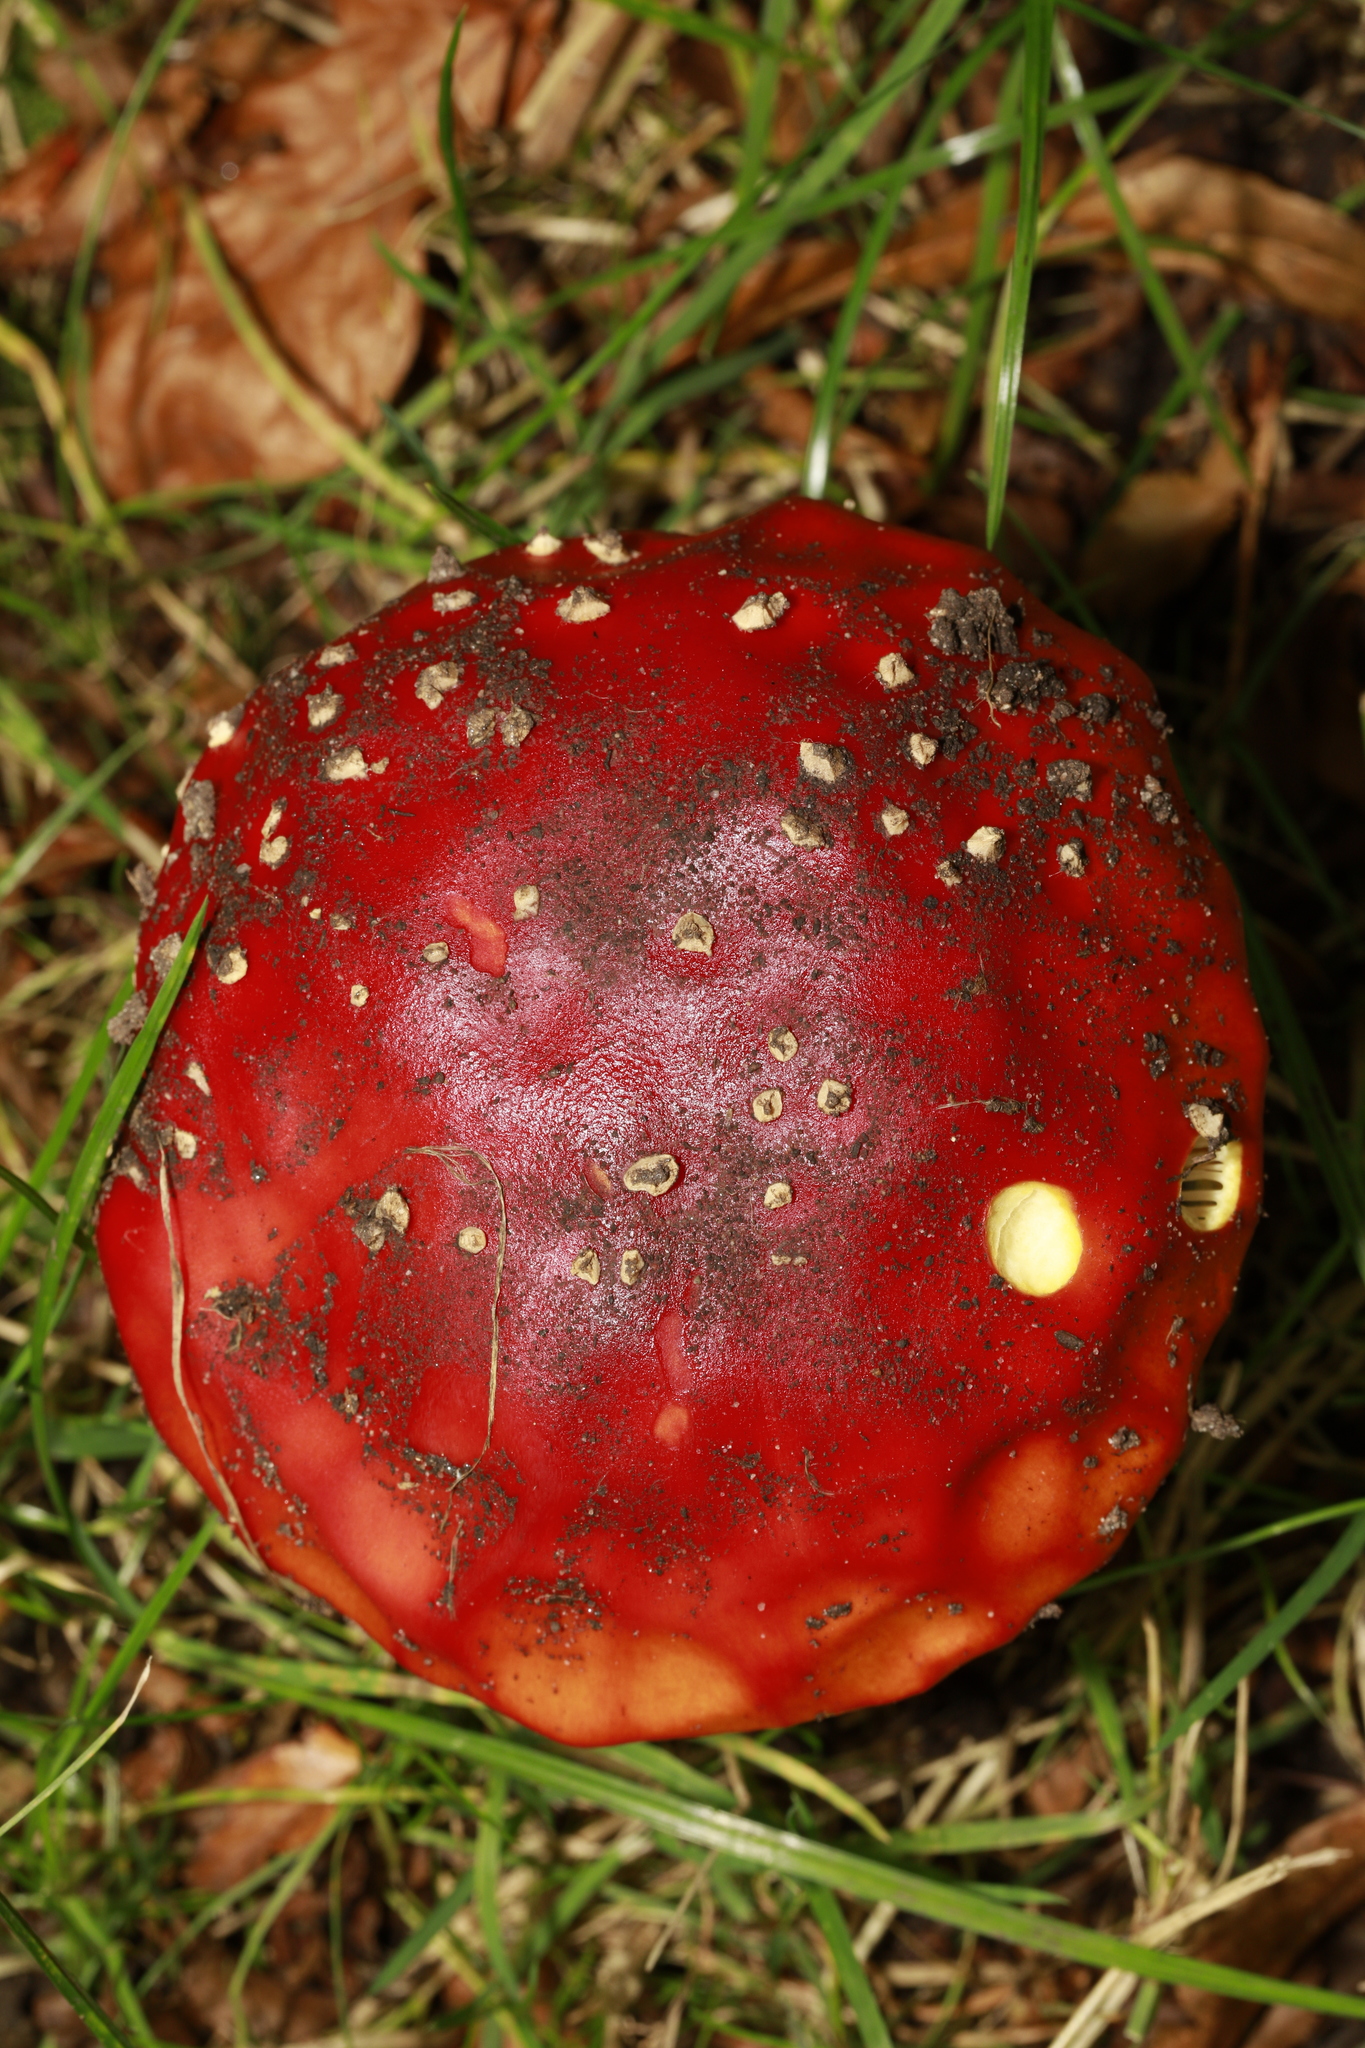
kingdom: Fungi
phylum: Basidiomycota
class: Agaricomycetes
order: Agaricales
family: Amanitaceae
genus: Amanita
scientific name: Amanita muscaria
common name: Fly agaric
